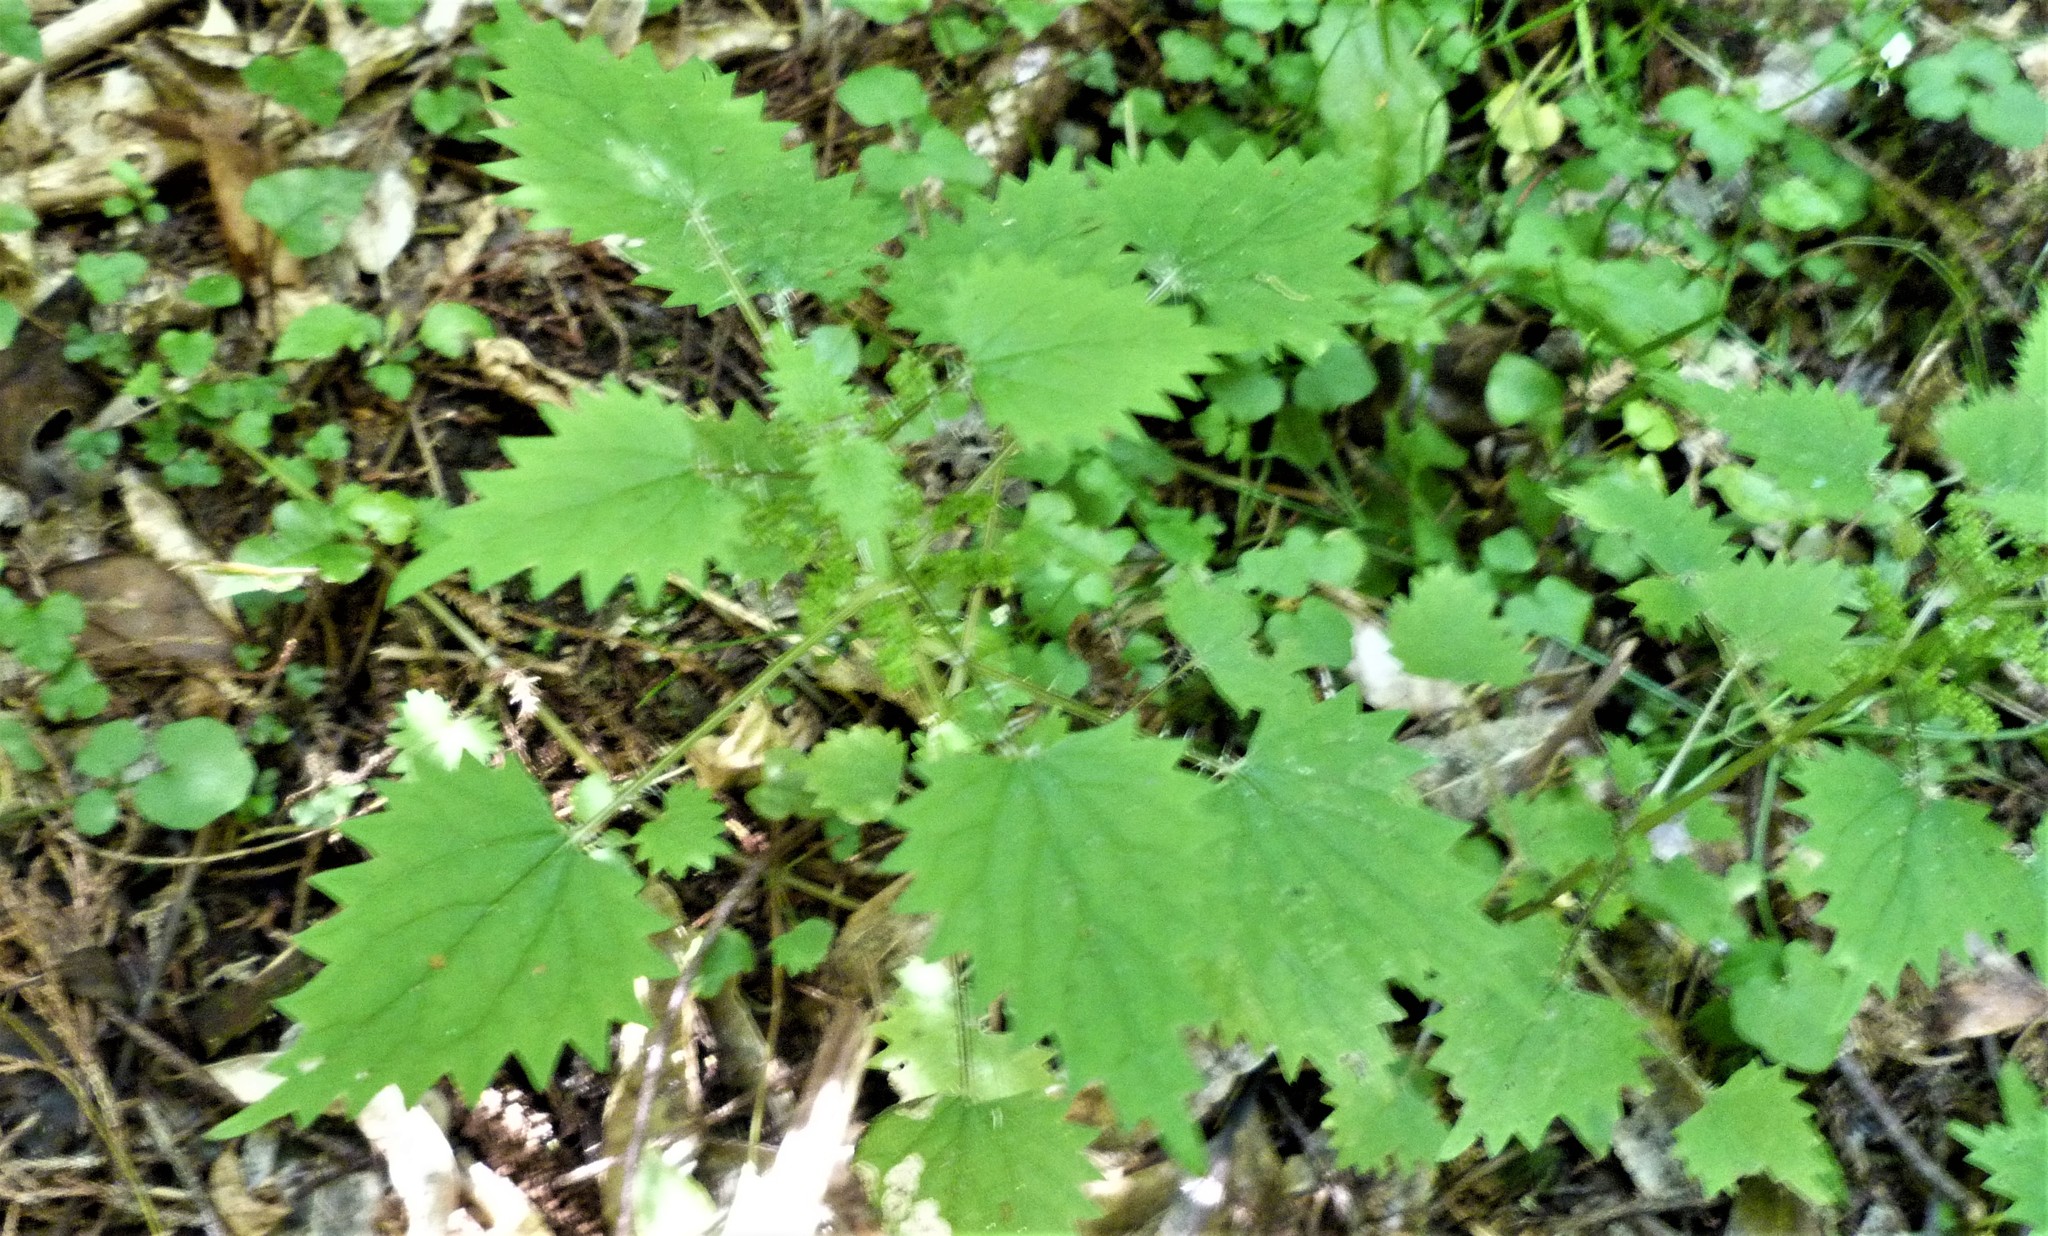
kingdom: Plantae
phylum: Tracheophyta
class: Magnoliopsida
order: Rosales
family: Urticaceae
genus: Urtica
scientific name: Urtica sykesii
